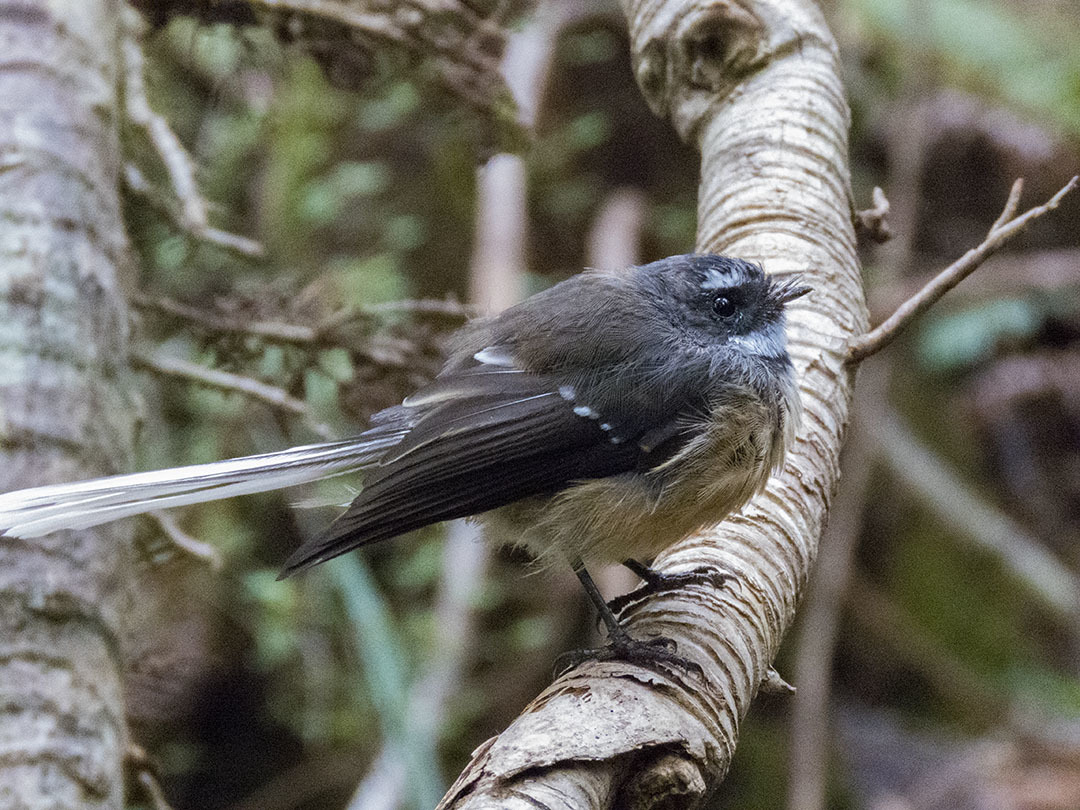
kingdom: Animalia
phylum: Chordata
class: Aves
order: Passeriformes
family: Rhipiduridae
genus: Rhipidura
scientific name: Rhipidura fuliginosa
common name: New zealand fantail
